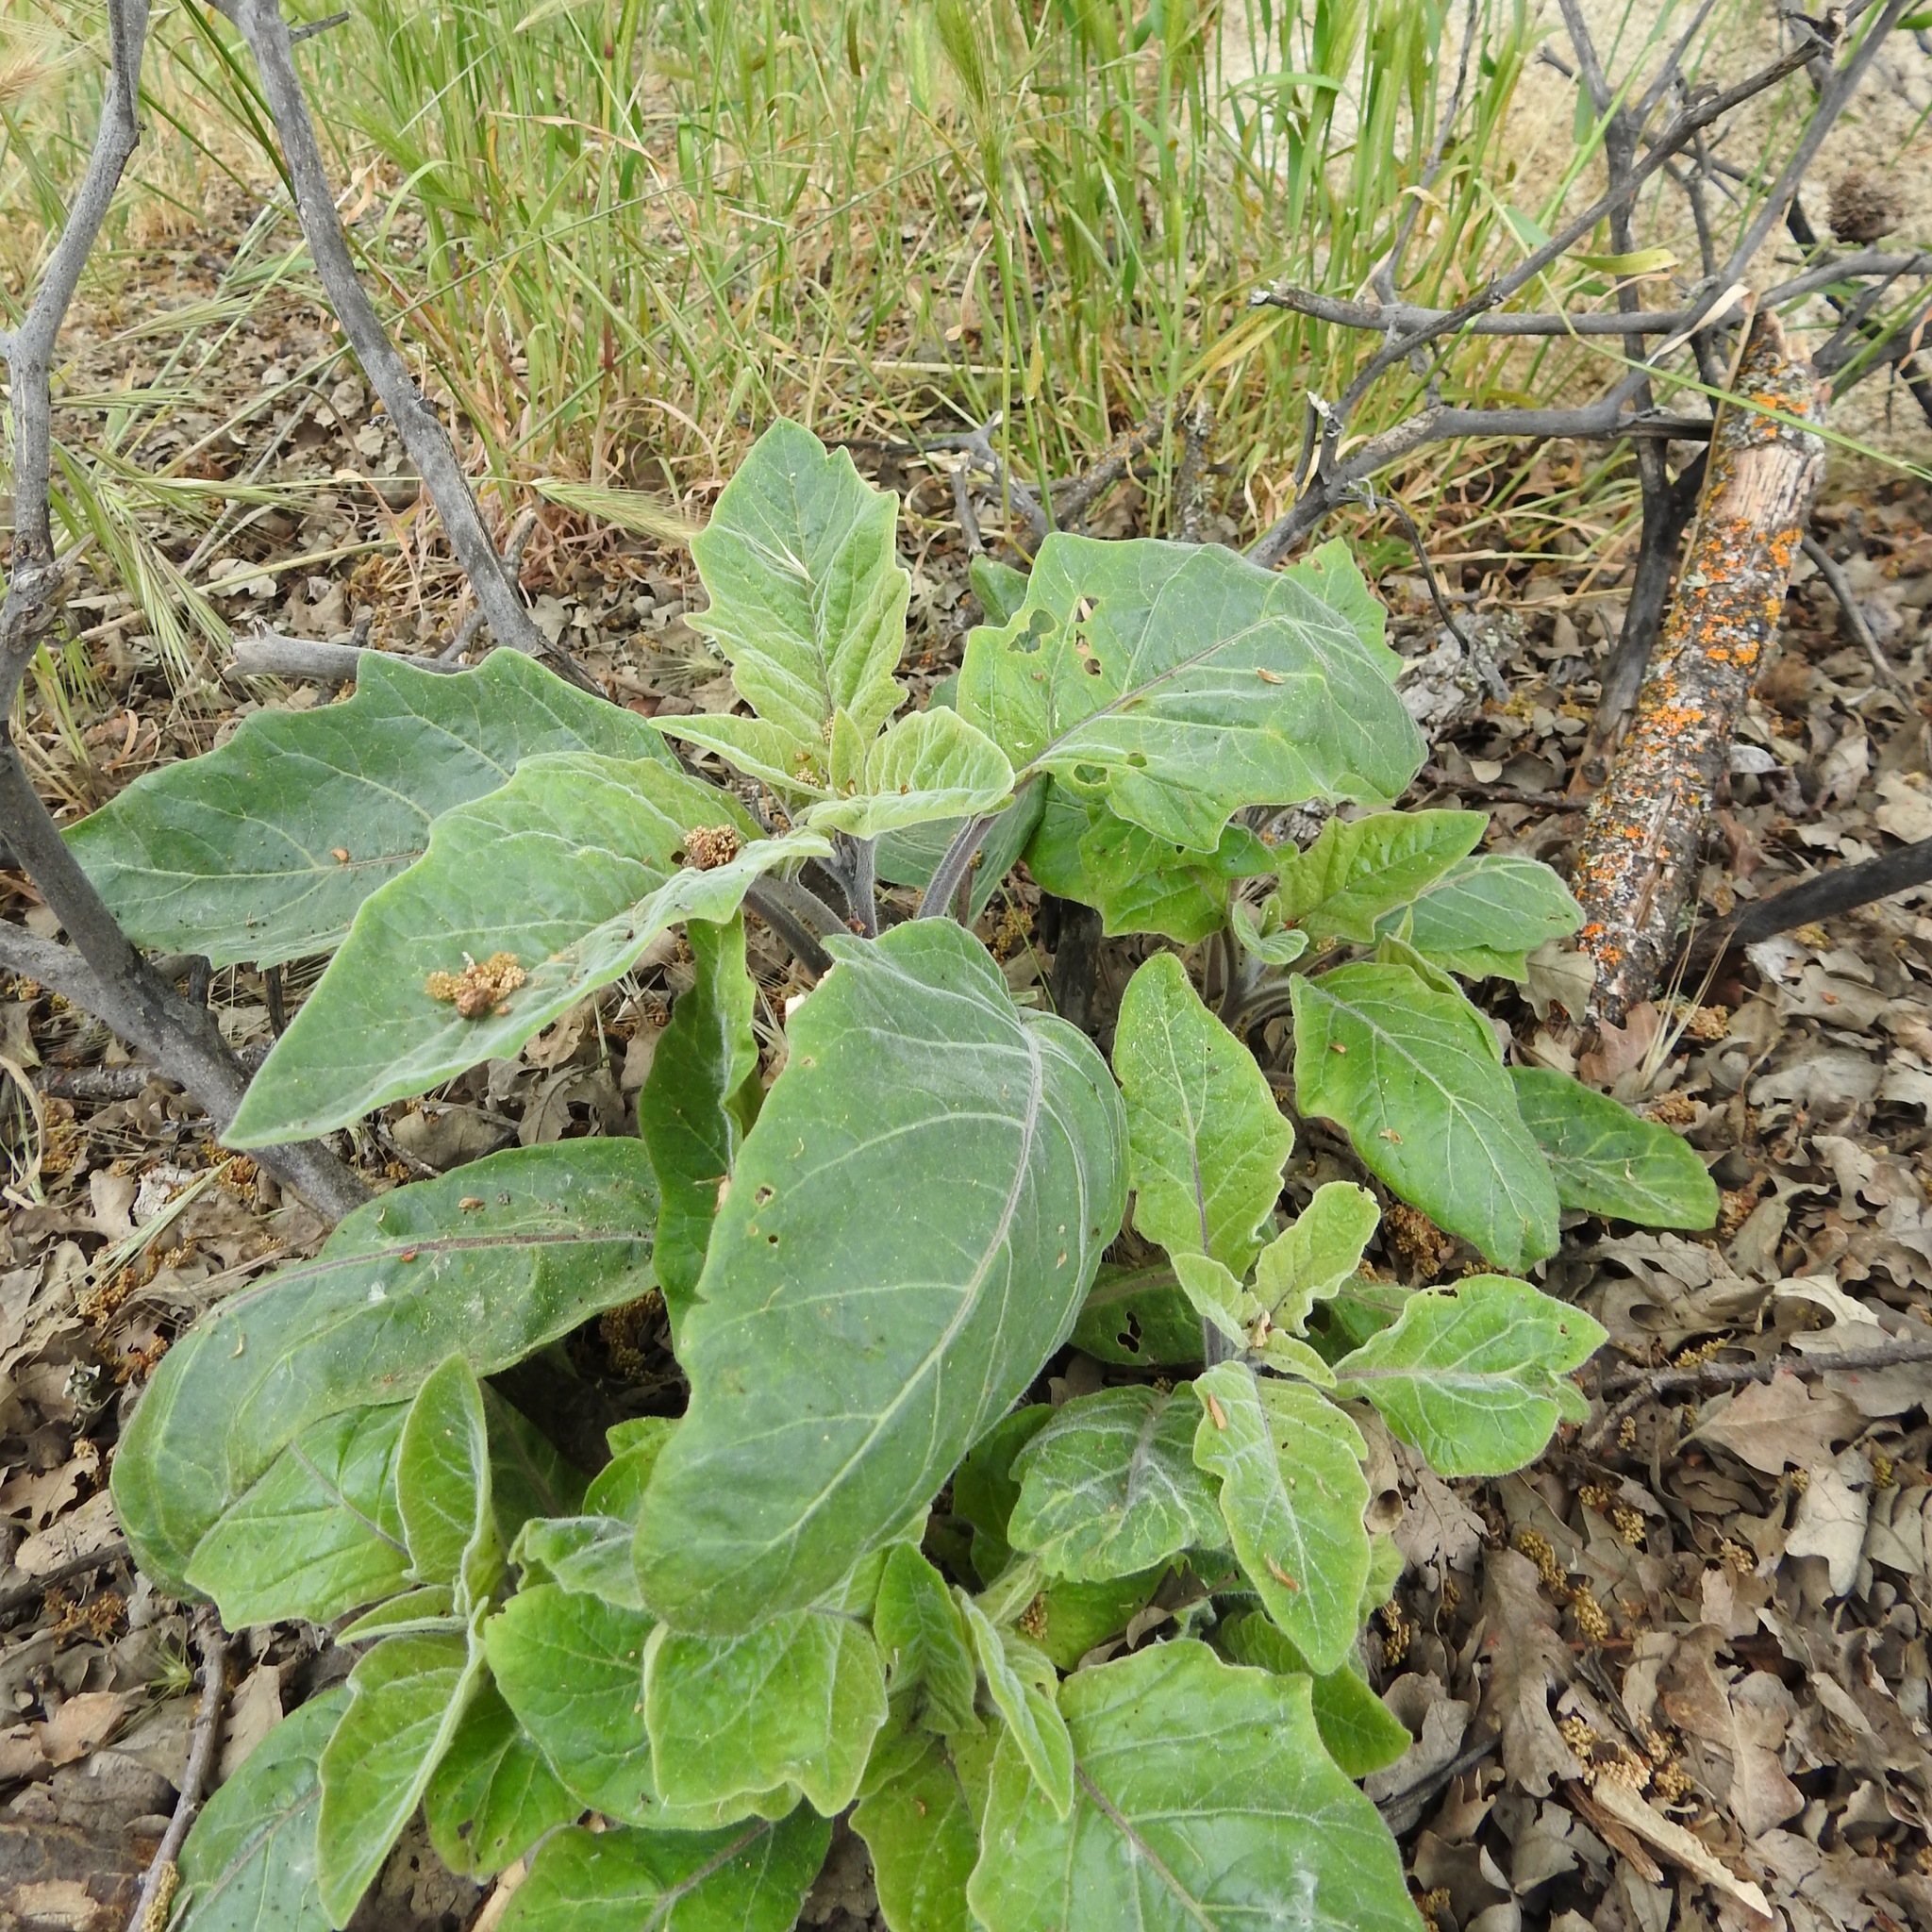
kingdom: Plantae
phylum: Tracheophyta
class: Magnoliopsida
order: Solanales
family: Solanaceae
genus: Datura
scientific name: Datura wrightii
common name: Sacred thorn-apple
